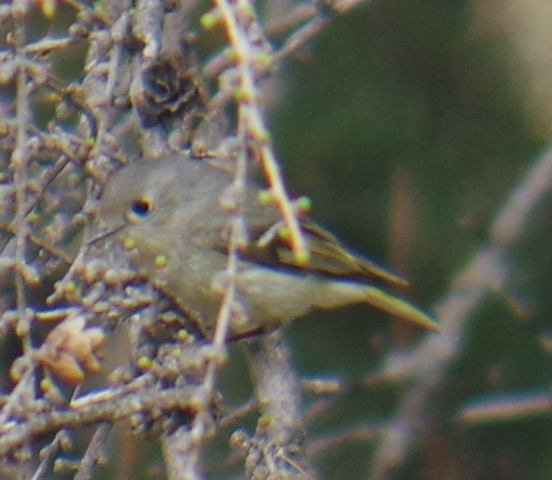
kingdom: Animalia
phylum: Chordata
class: Aves
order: Passeriformes
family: Regulidae
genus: Regulus
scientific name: Regulus calendula
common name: Ruby-crowned kinglet
